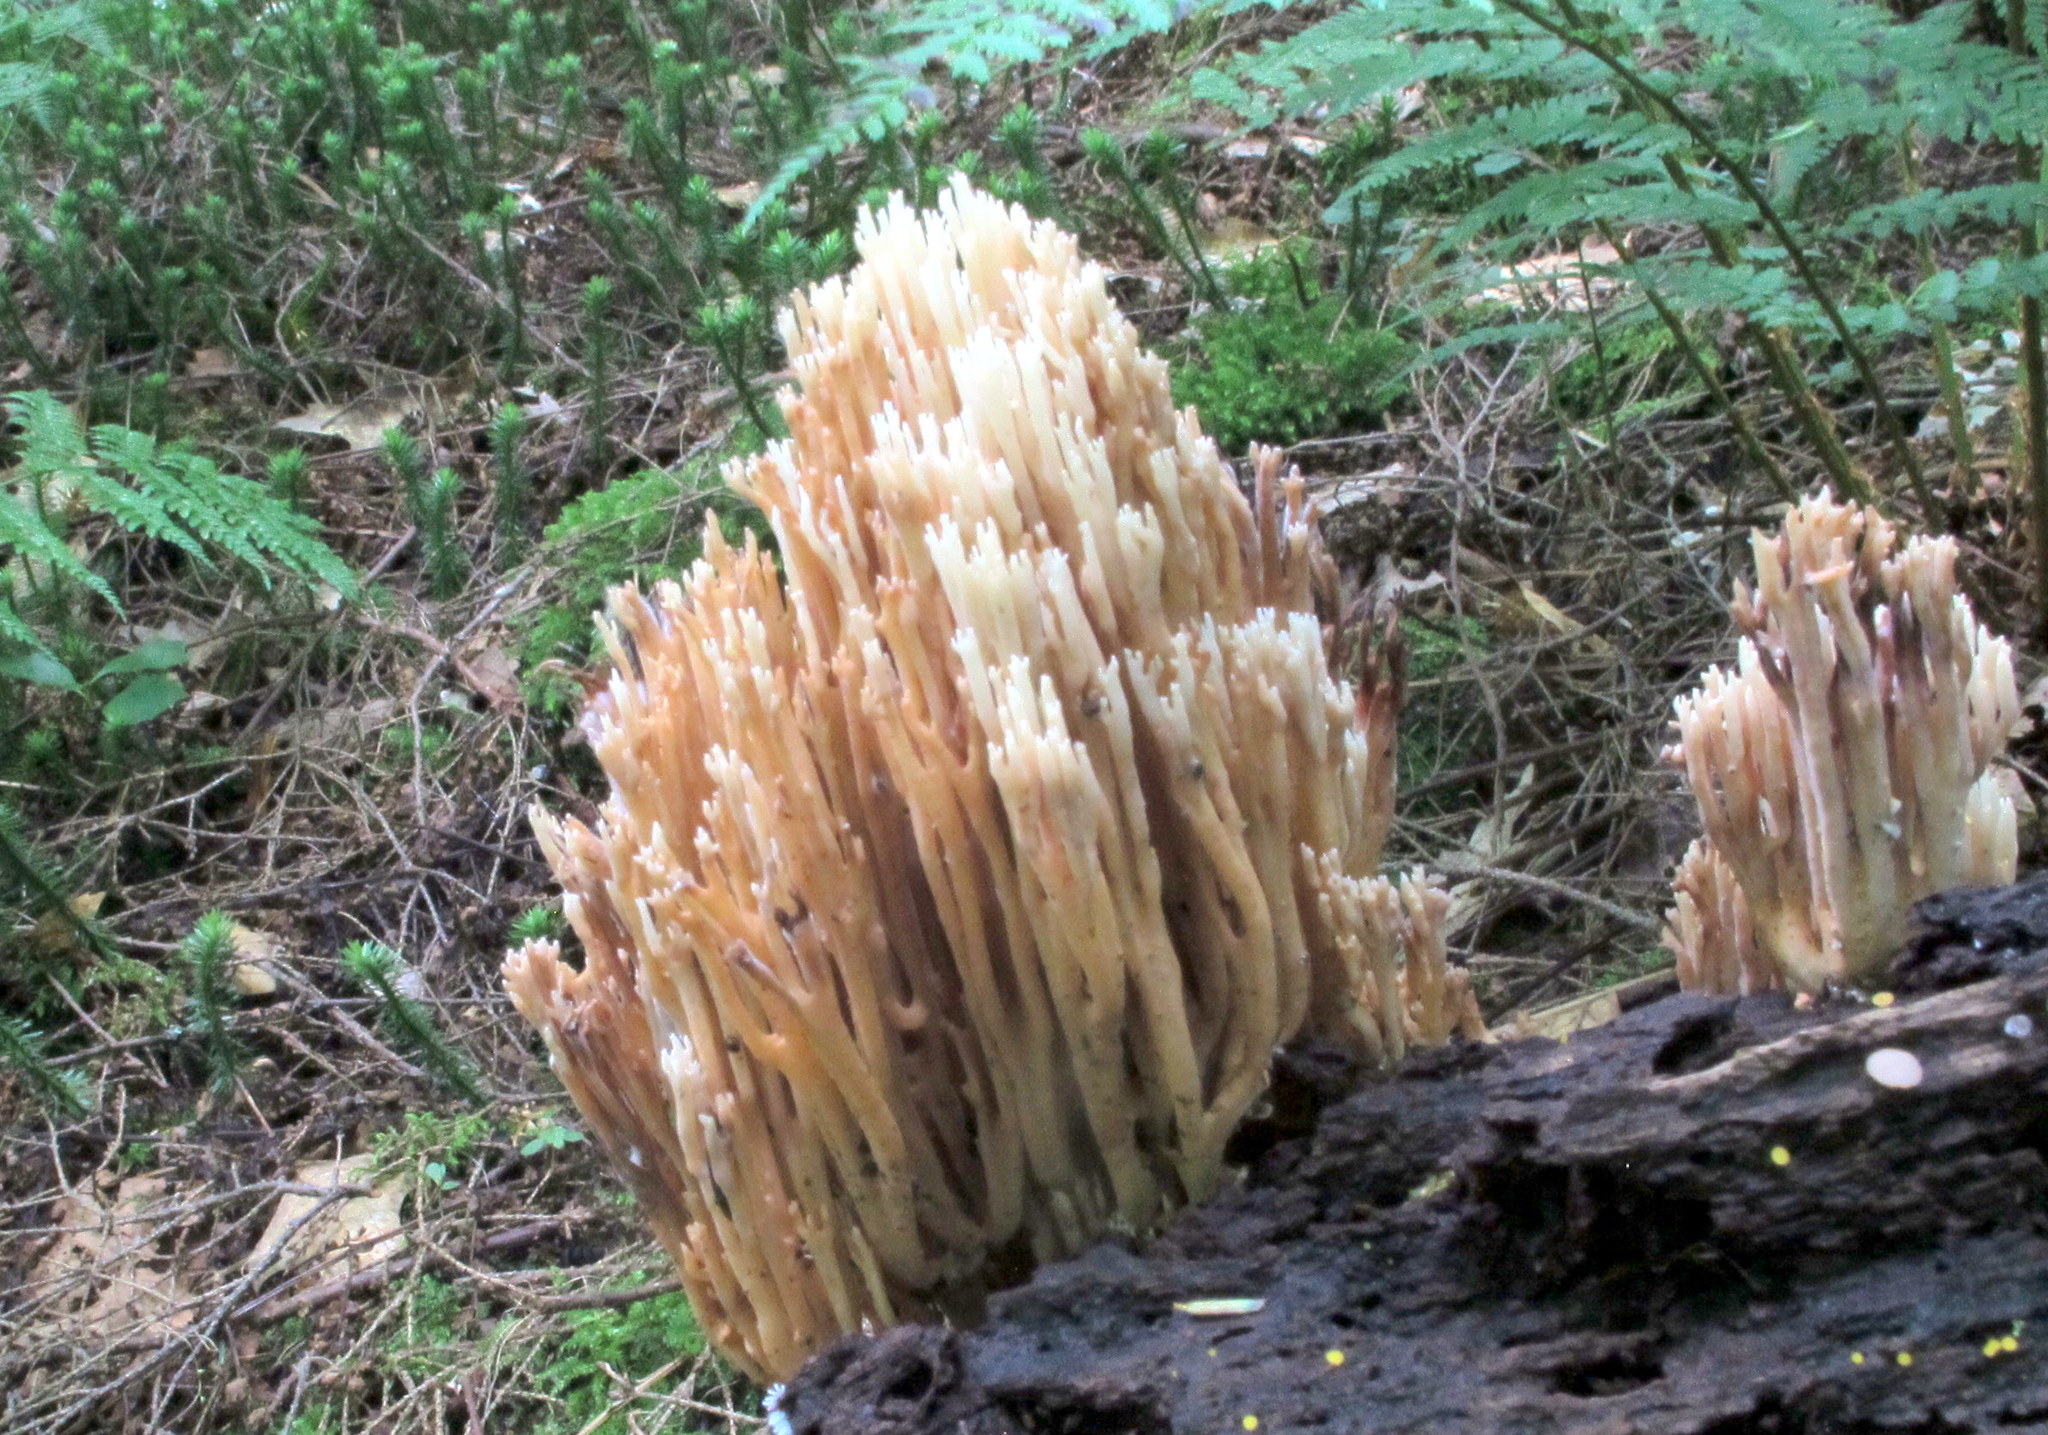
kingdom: Fungi
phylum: Basidiomycota
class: Agaricomycetes
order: Gomphales
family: Gomphaceae
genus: Ramaria
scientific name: Ramaria stricta
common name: Upright coral
